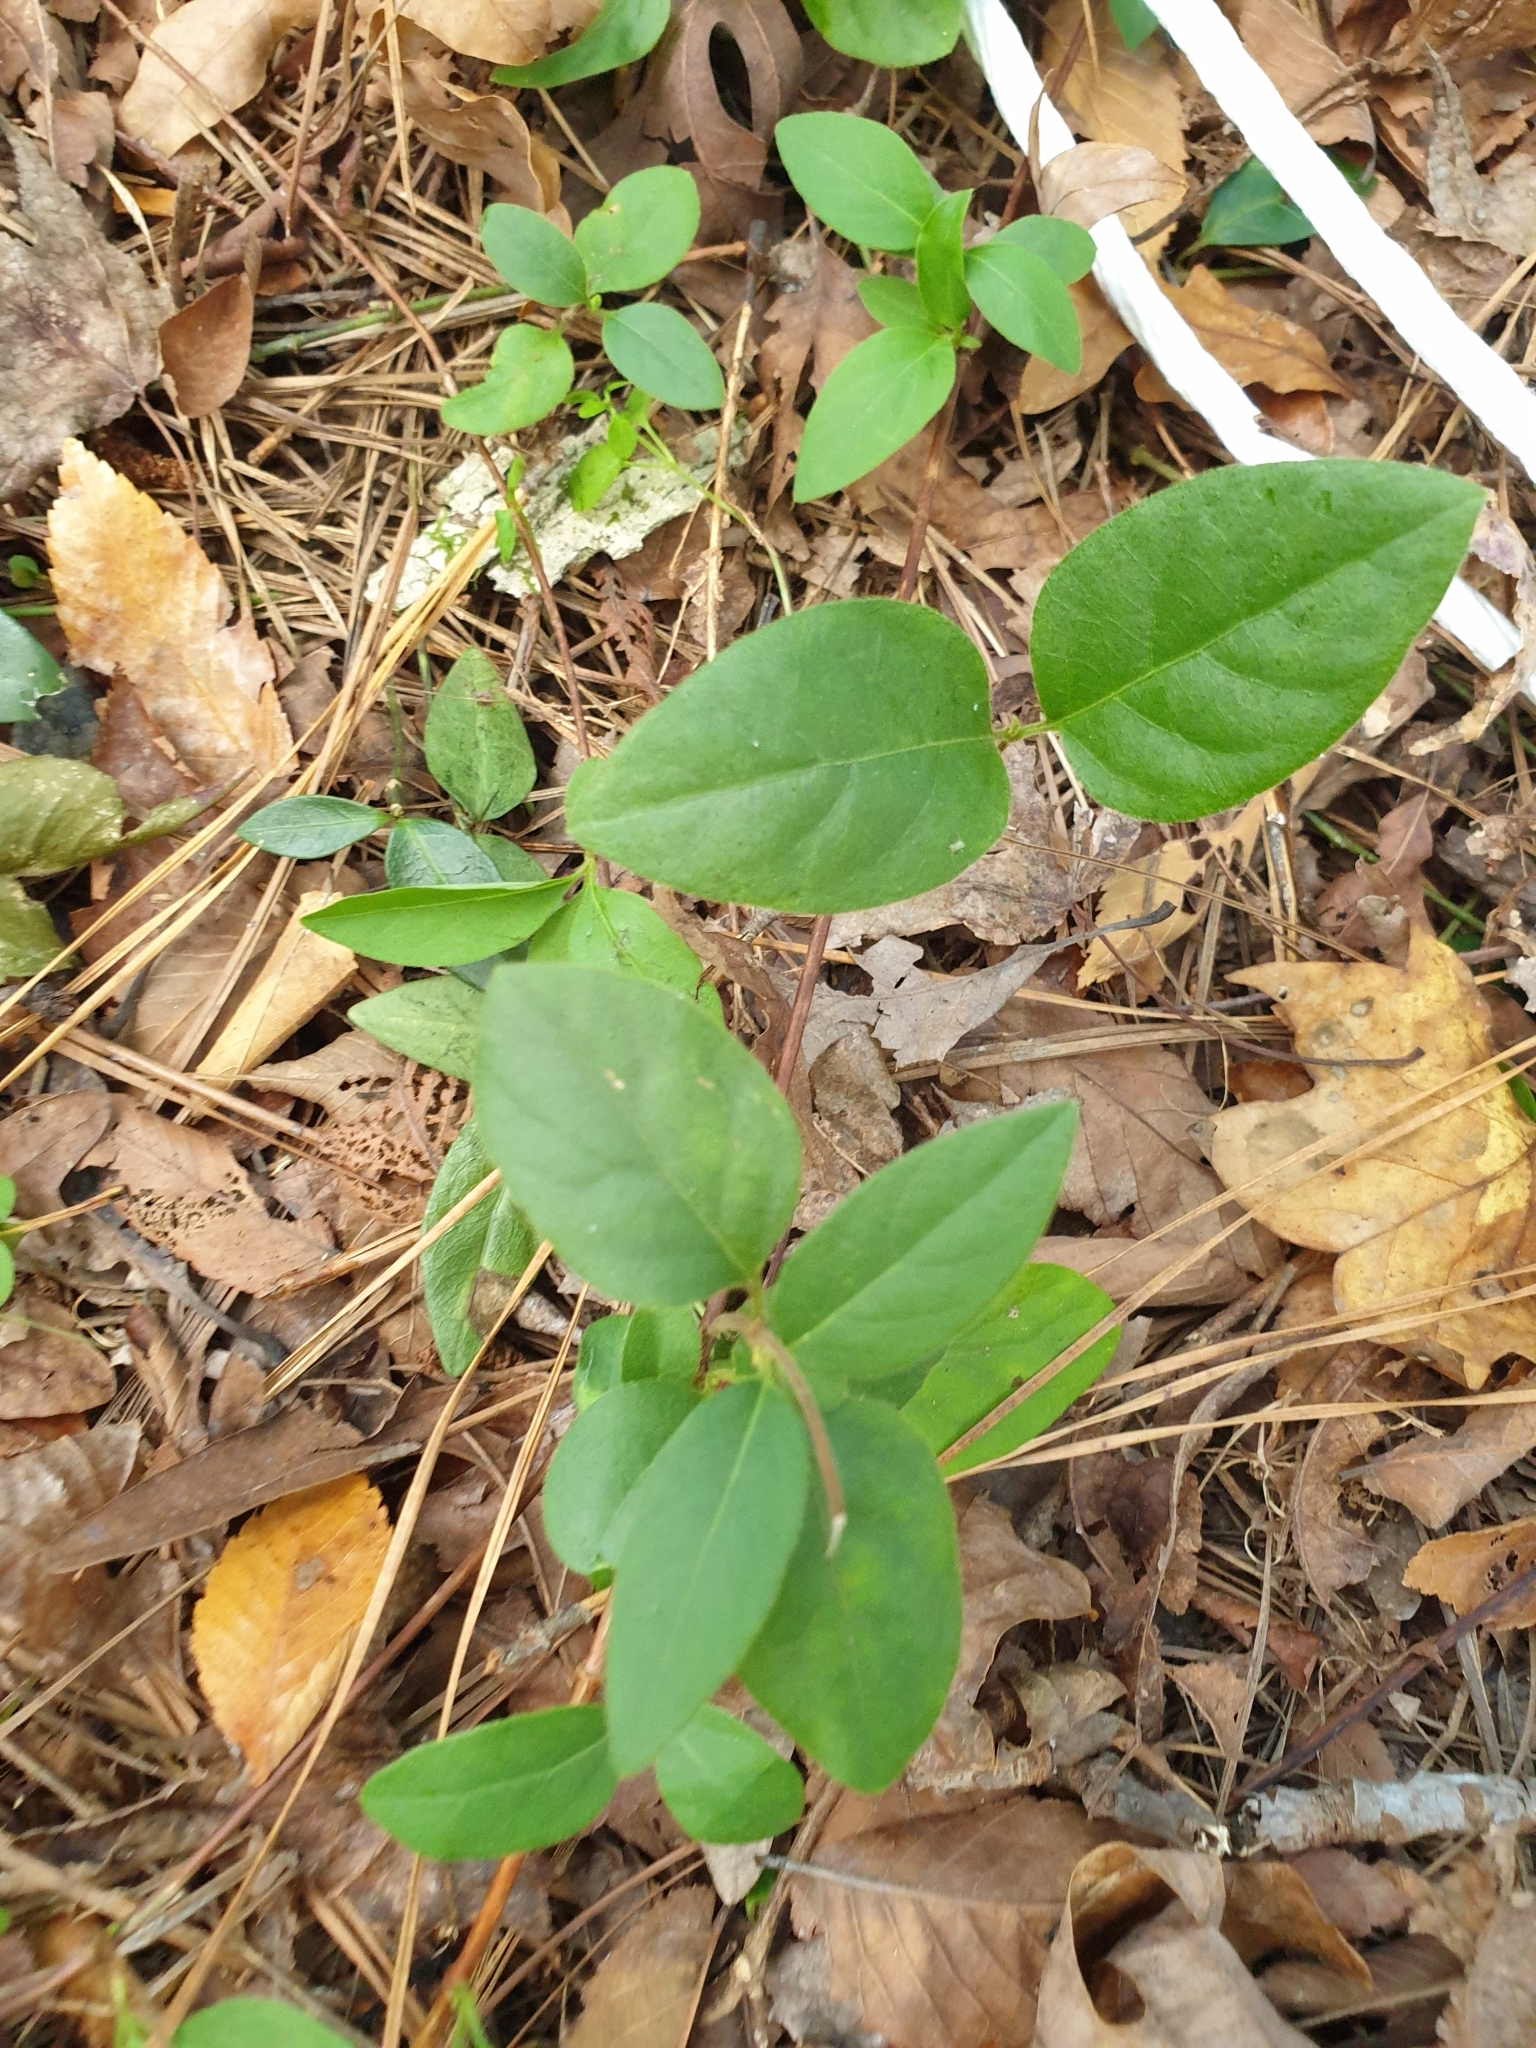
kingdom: Plantae
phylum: Tracheophyta
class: Magnoliopsida
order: Dipsacales
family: Caprifoliaceae
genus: Lonicera
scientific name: Lonicera japonica
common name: Japanese honeysuckle
